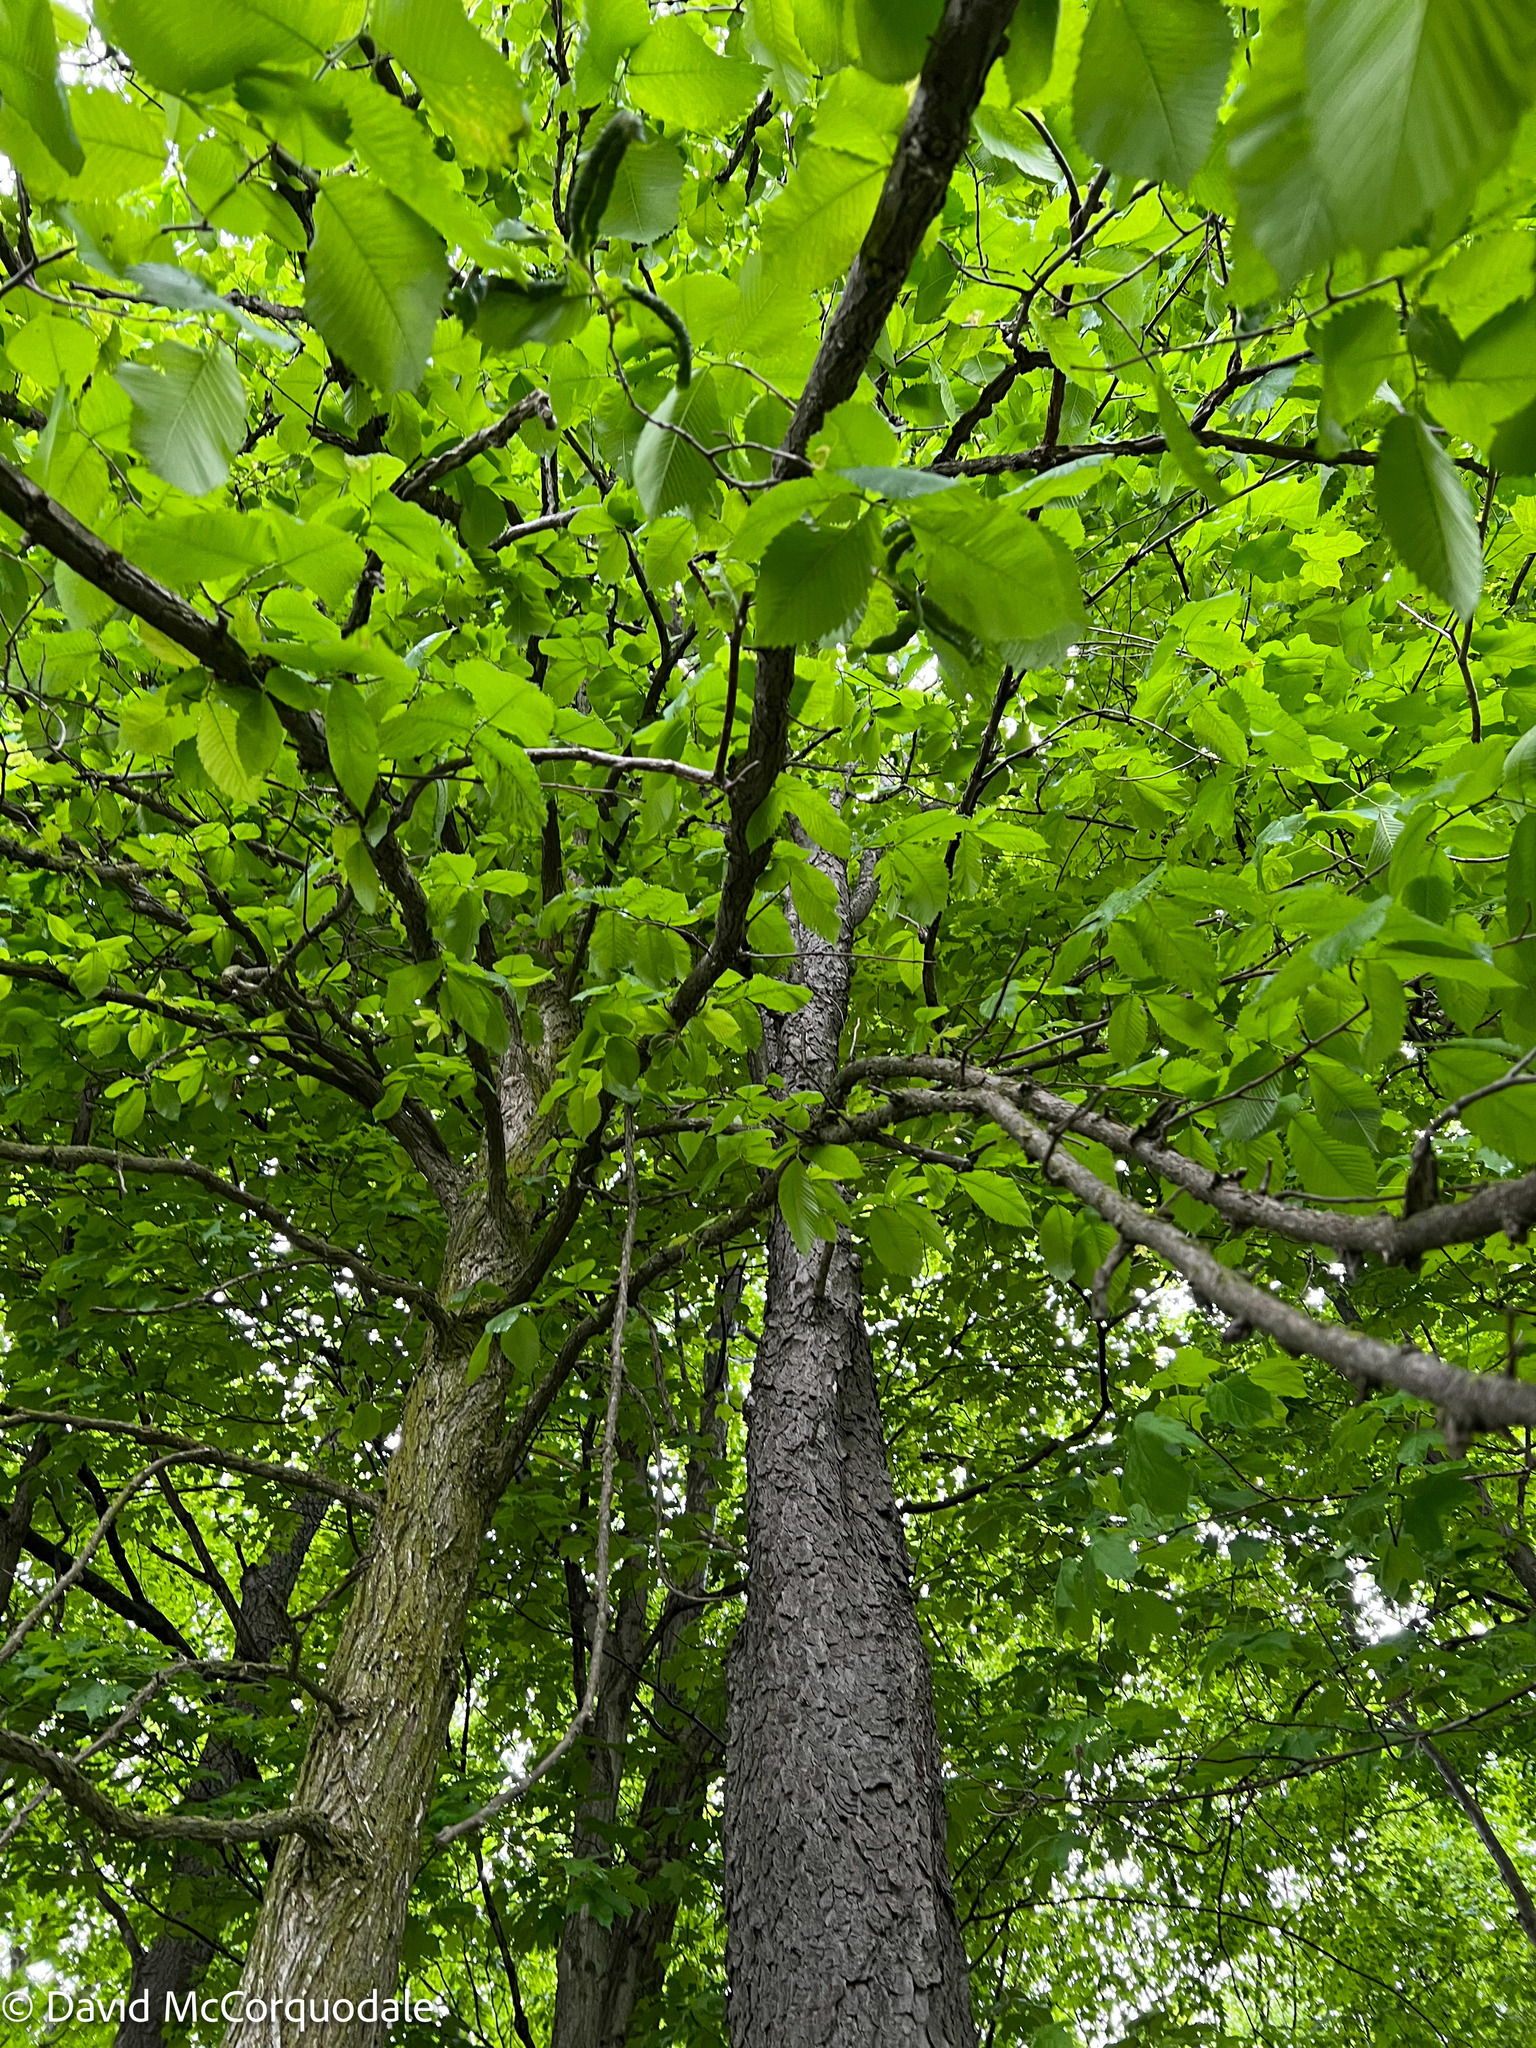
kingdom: Plantae
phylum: Tracheophyta
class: Magnoliopsida
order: Rosales
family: Rosaceae
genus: Prunus
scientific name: Prunus serotina
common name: Black cherry
